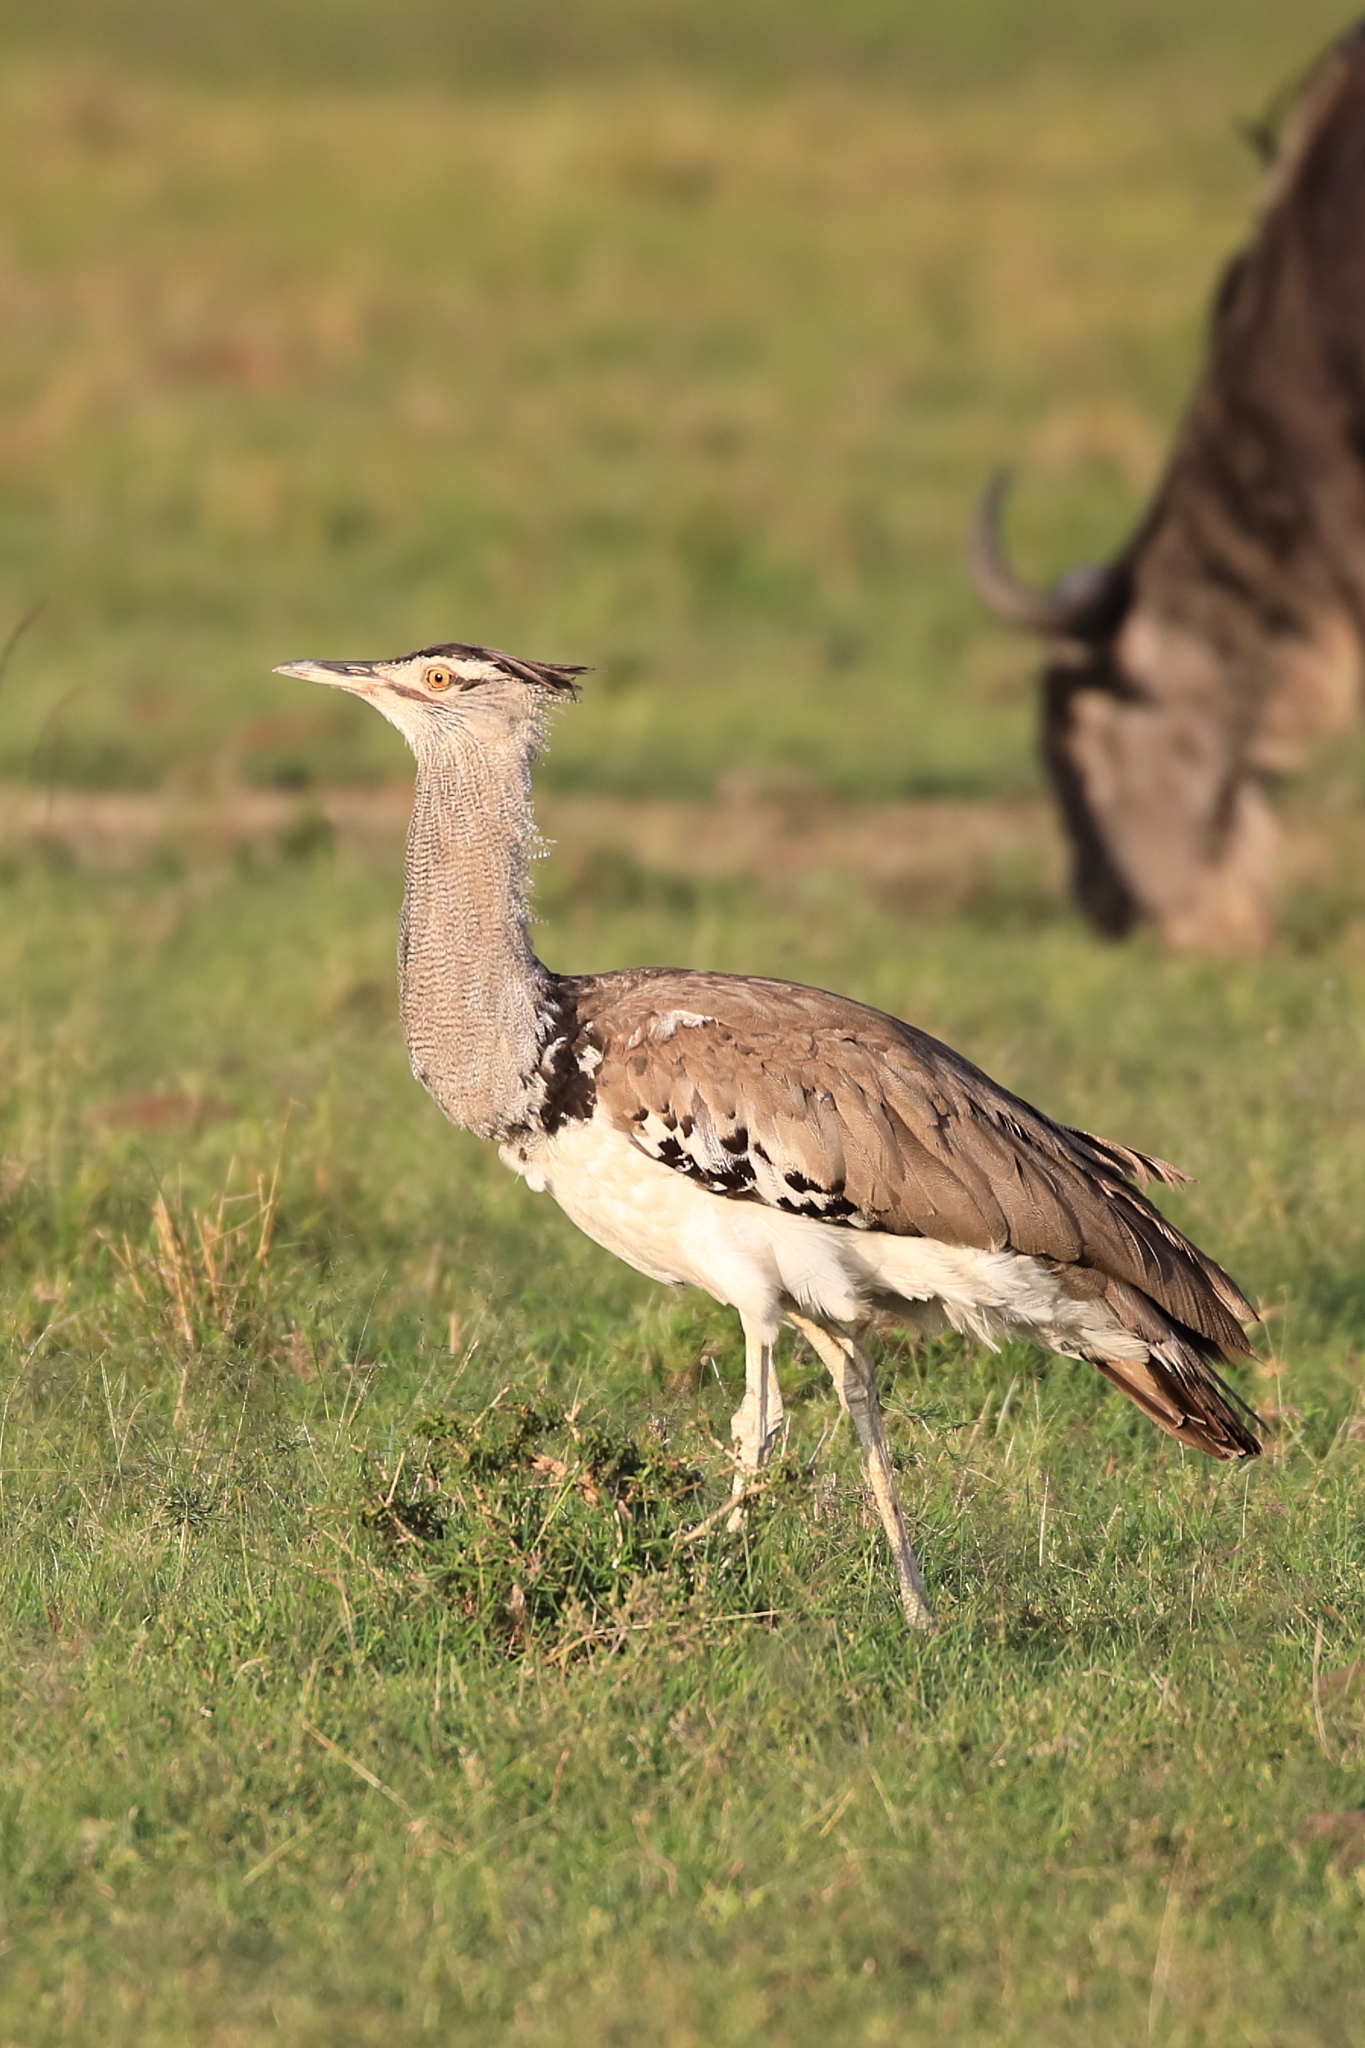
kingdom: Animalia
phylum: Chordata
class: Aves
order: Otidiformes
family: Otididae
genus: Ardeotis
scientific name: Ardeotis kori
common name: Kori bustard
